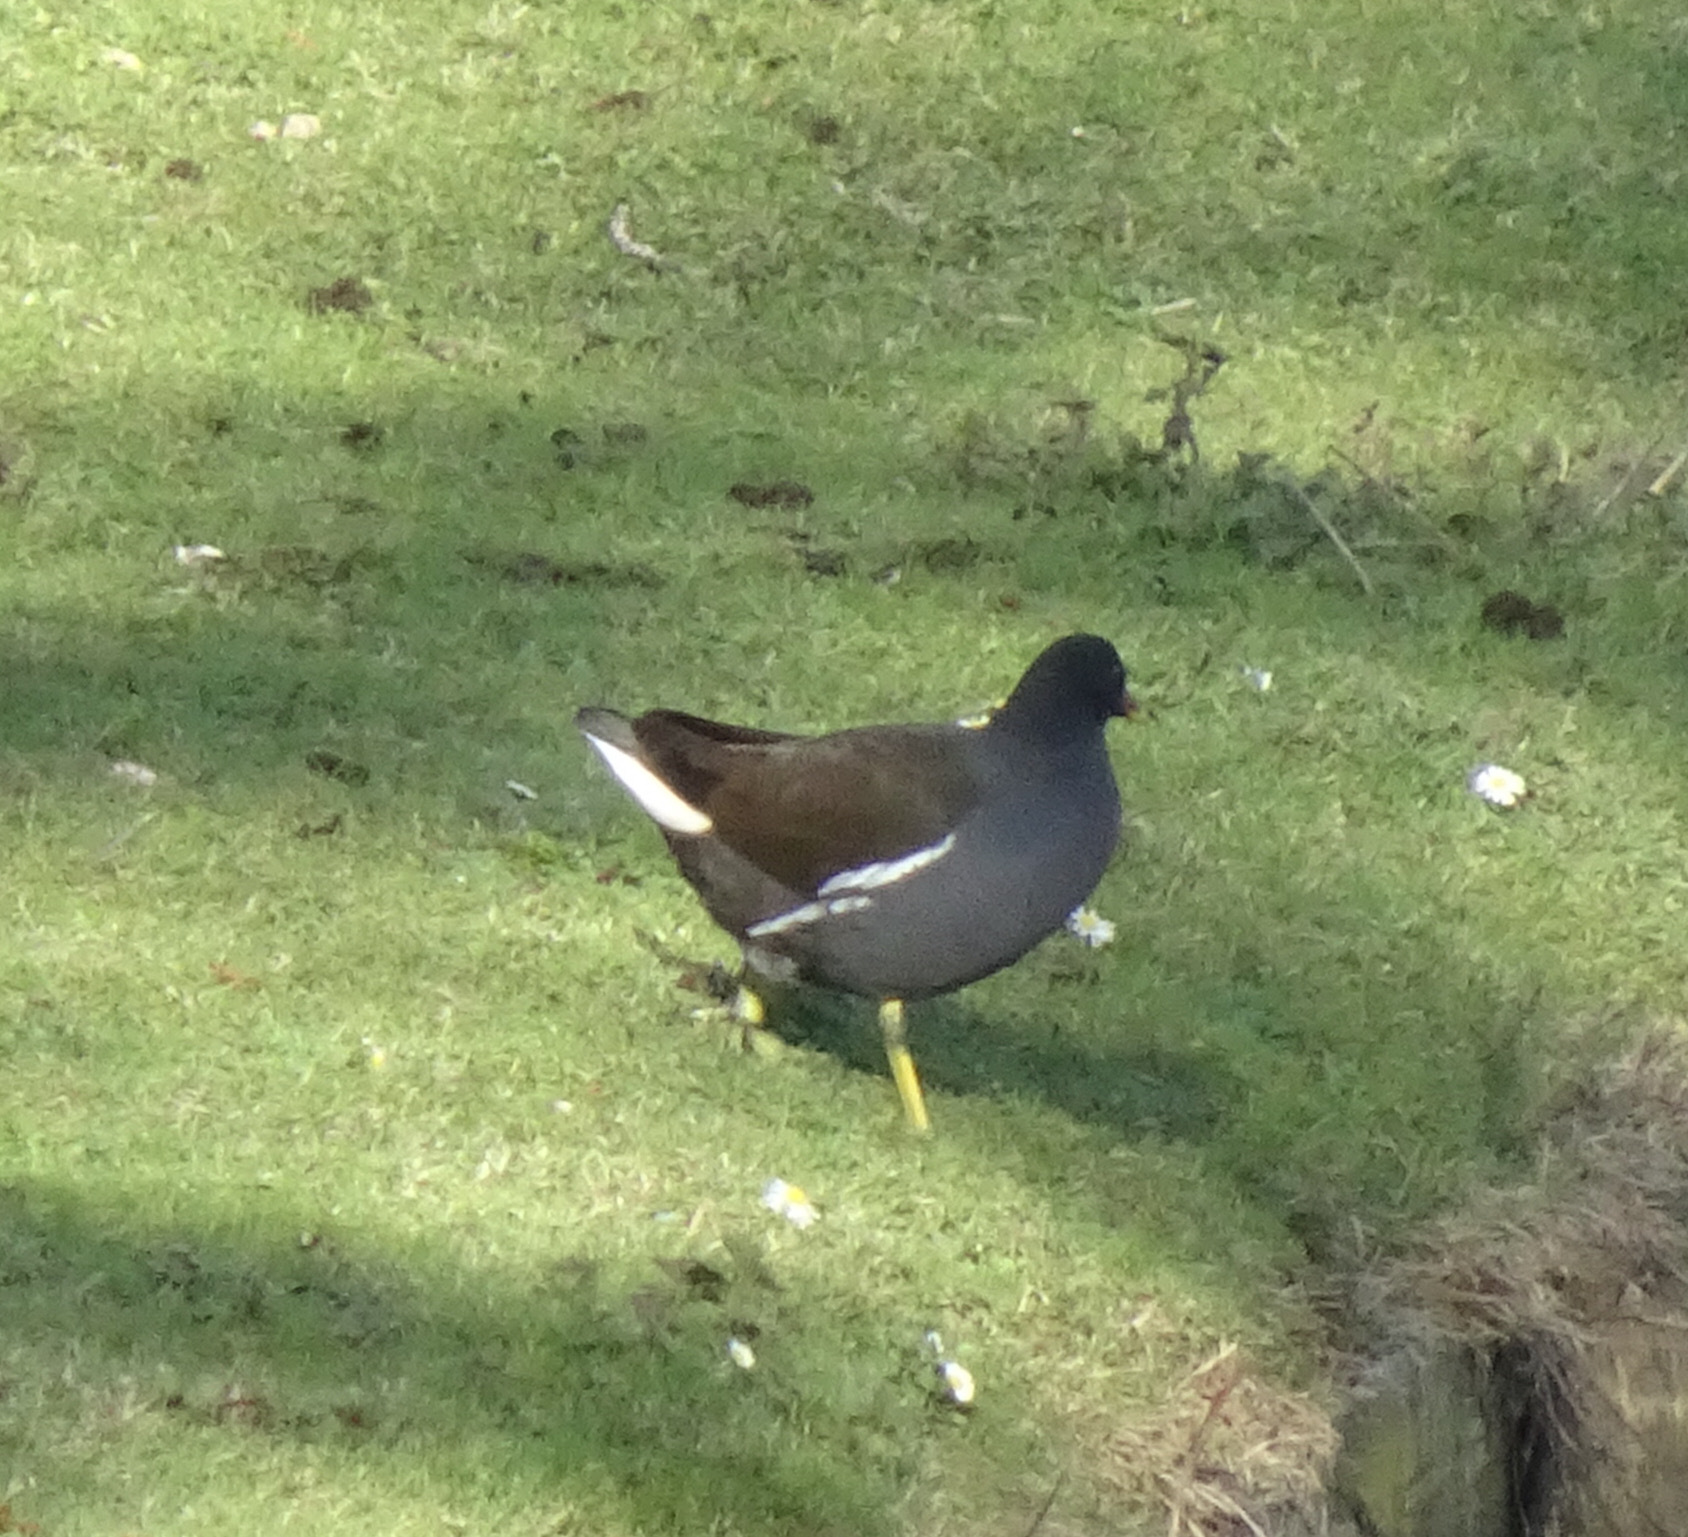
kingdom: Animalia
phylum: Chordata
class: Aves
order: Gruiformes
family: Rallidae
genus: Gallinula
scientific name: Gallinula chloropus
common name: Common moorhen
